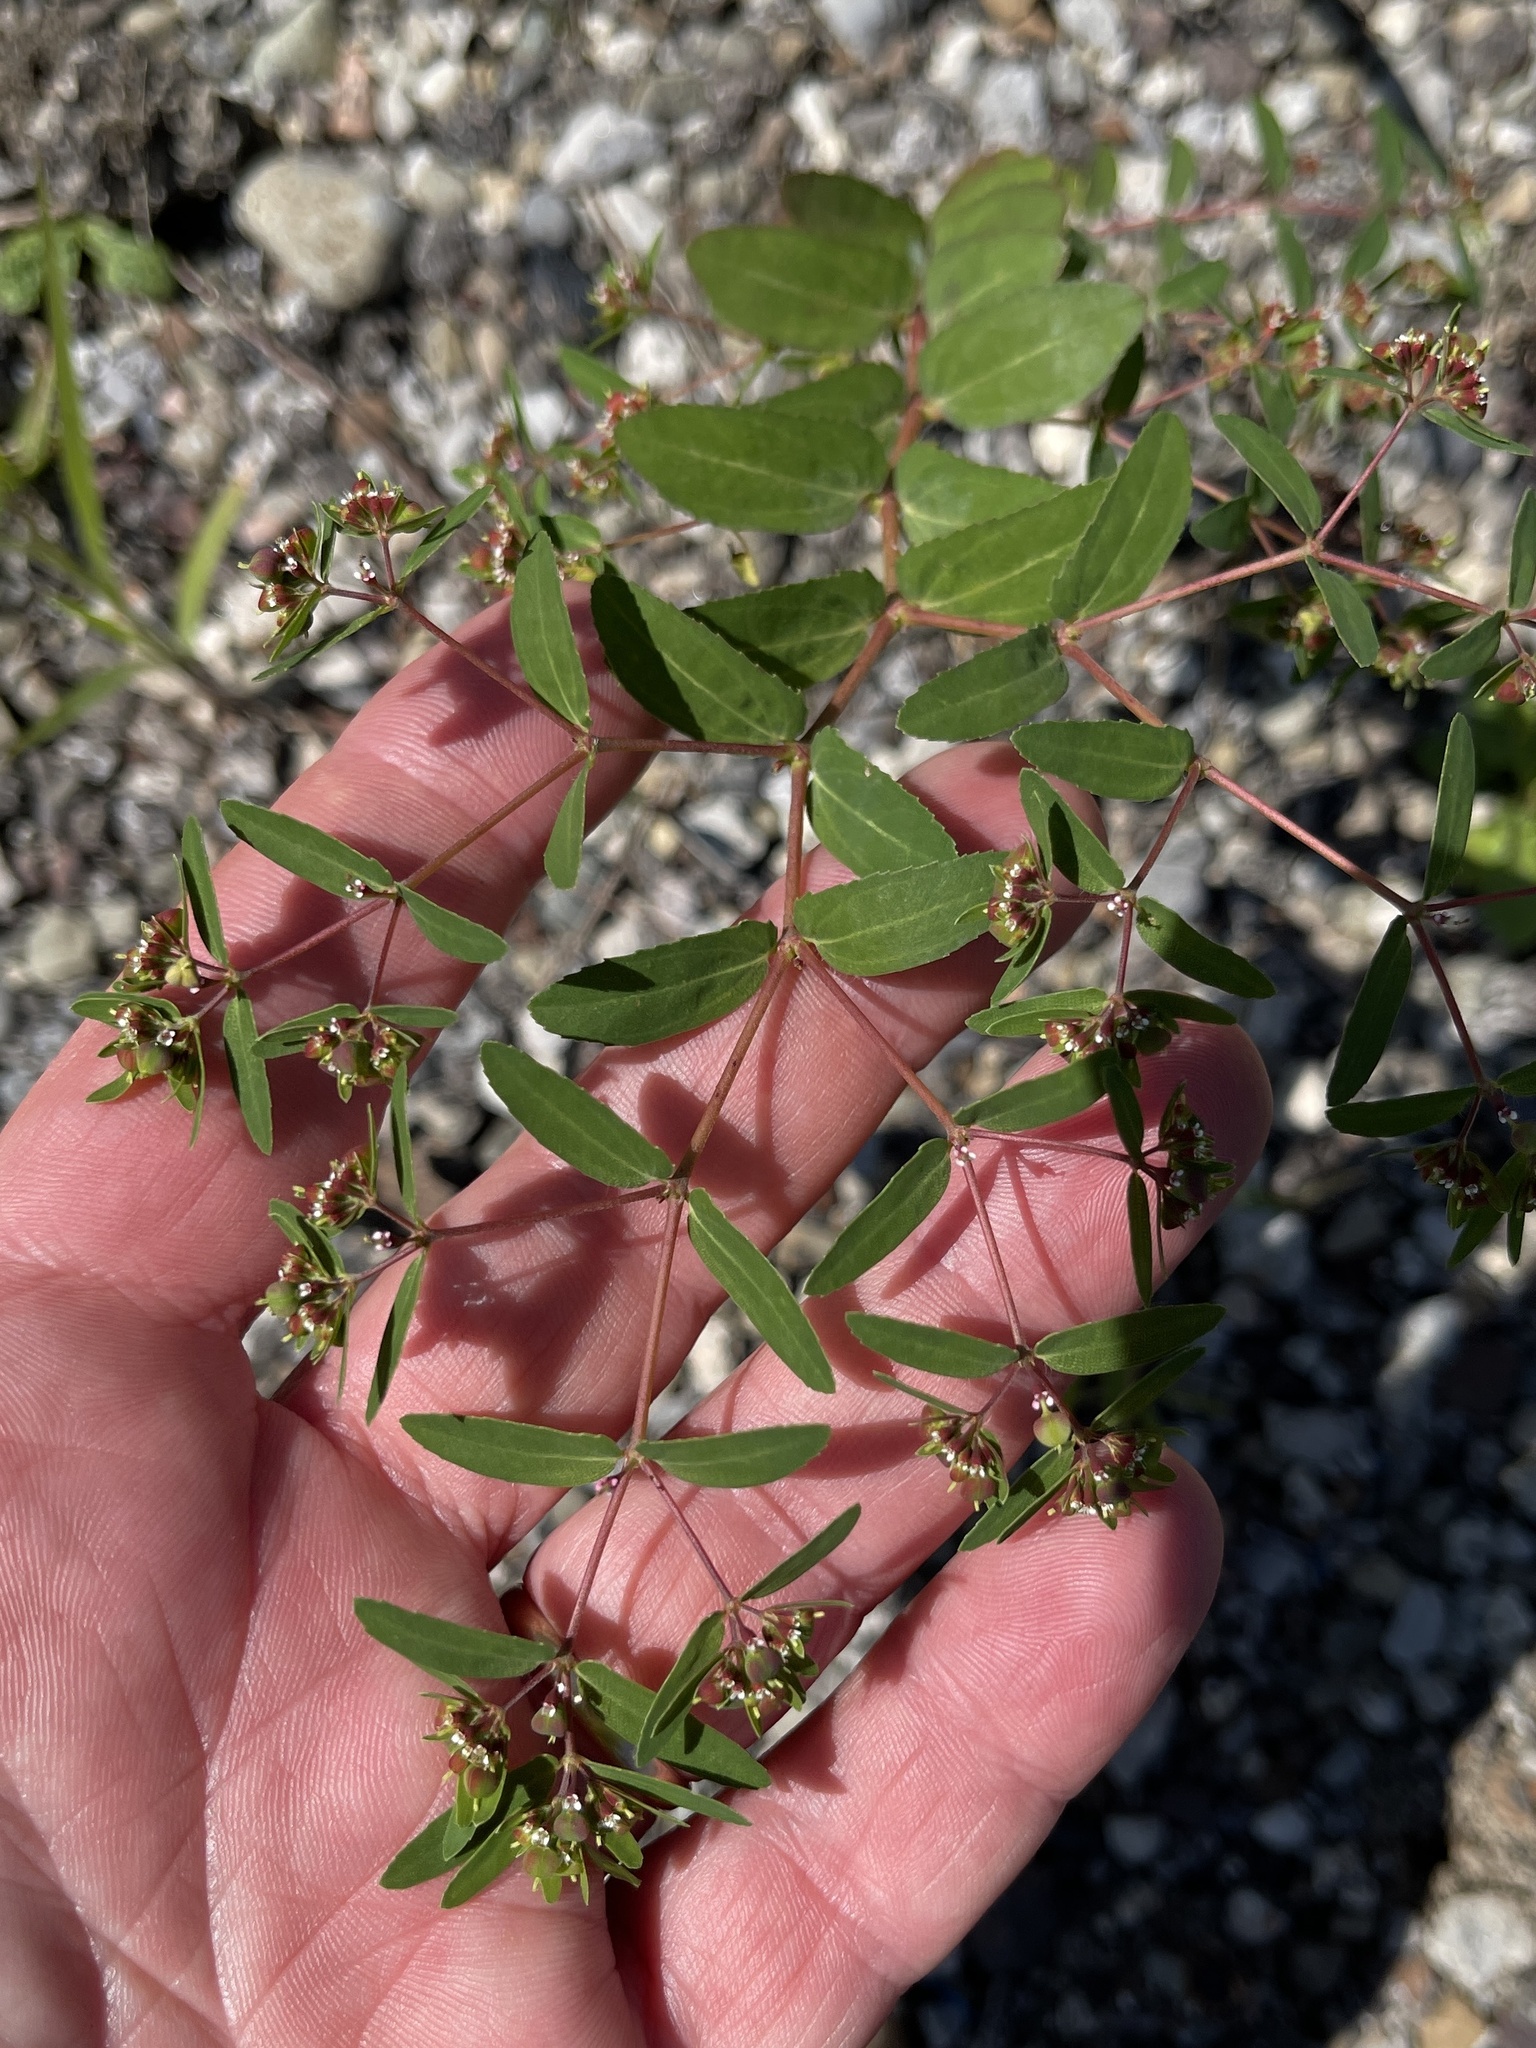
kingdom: Plantae
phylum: Tracheophyta
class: Magnoliopsida
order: Malpighiales
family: Euphorbiaceae
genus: Euphorbia
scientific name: Euphorbia nutans
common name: Eyebane
